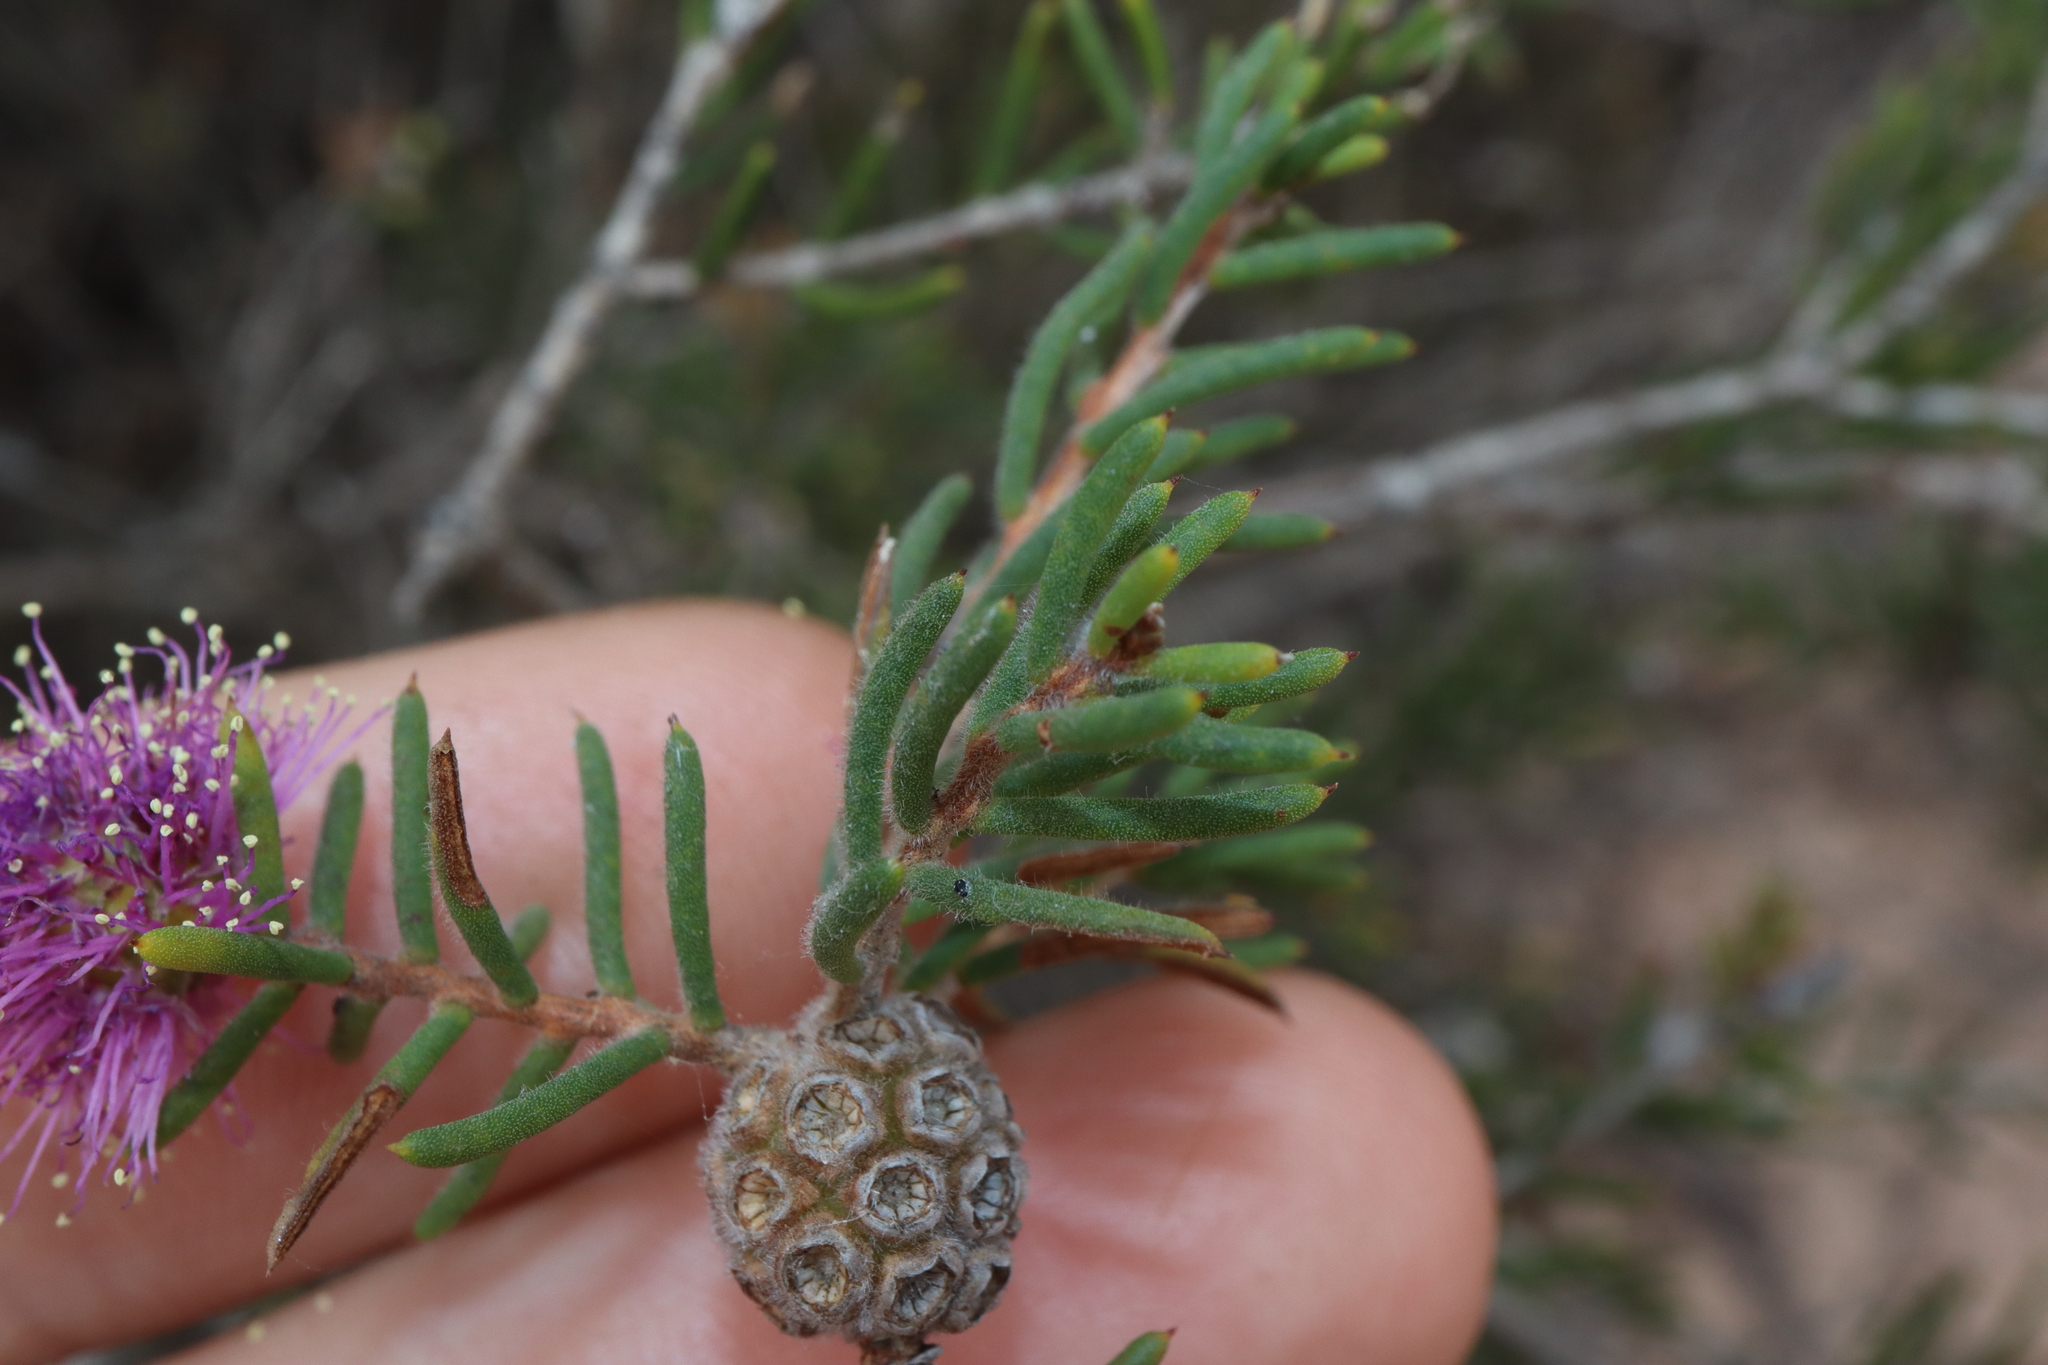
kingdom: Plantae
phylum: Tracheophyta
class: Magnoliopsida
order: Myrtales
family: Myrtaceae
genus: Melaleuca
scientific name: Melaleuca carrii
